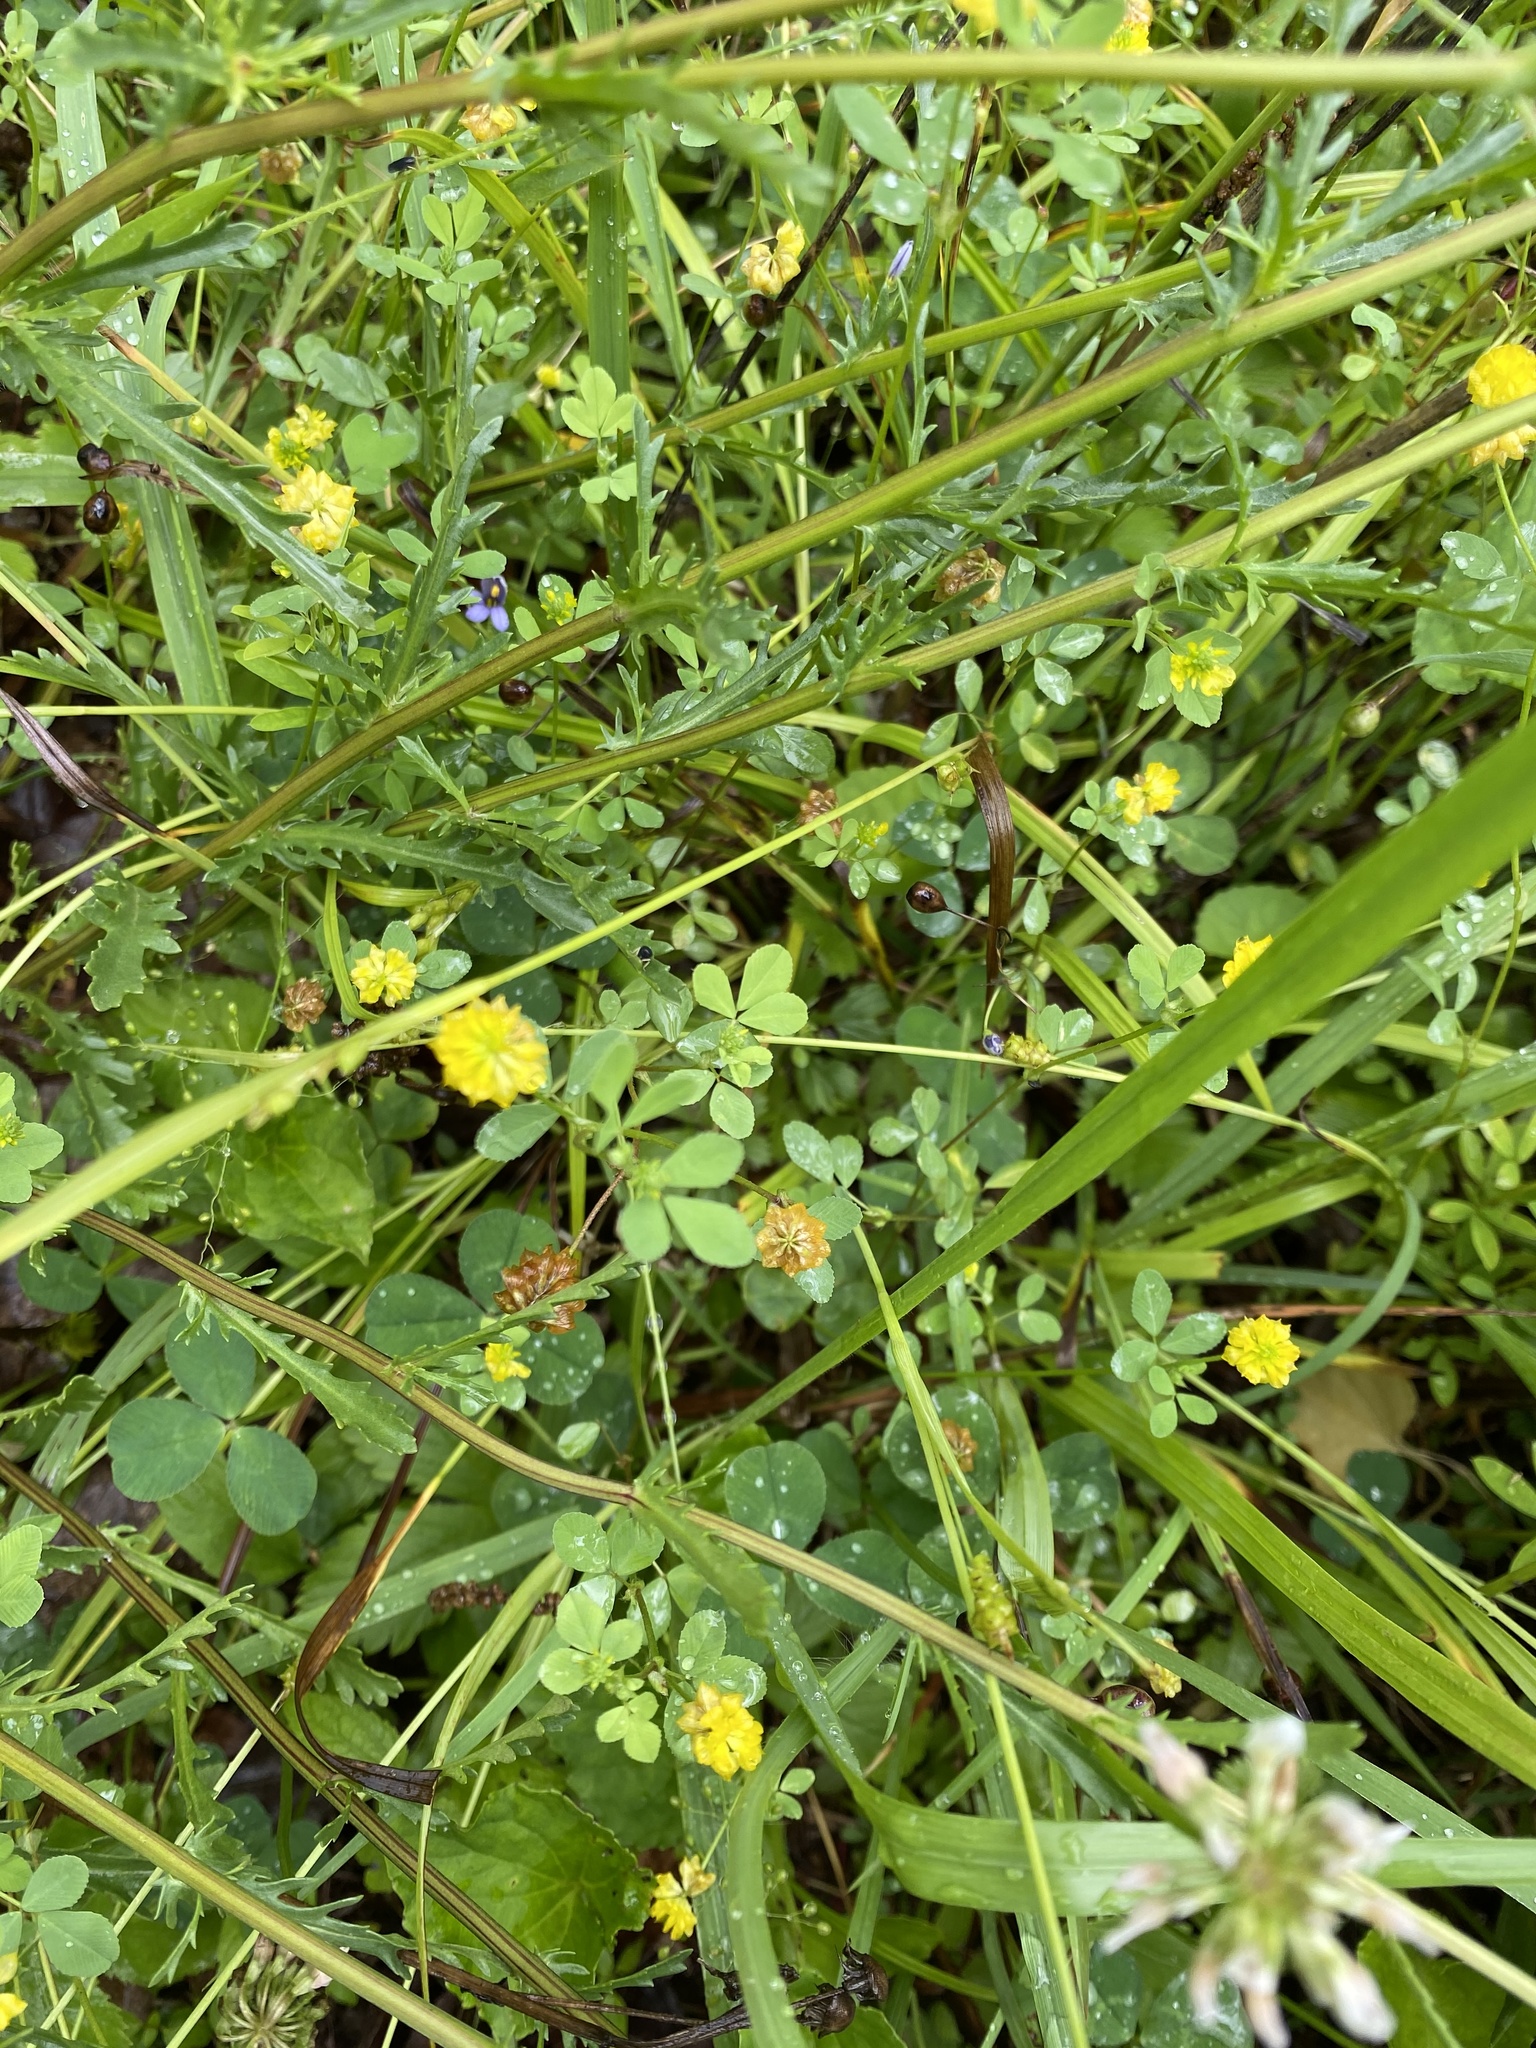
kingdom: Plantae
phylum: Tracheophyta
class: Magnoliopsida
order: Fabales
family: Fabaceae
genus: Trifolium
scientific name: Trifolium campestre
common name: Field clover
